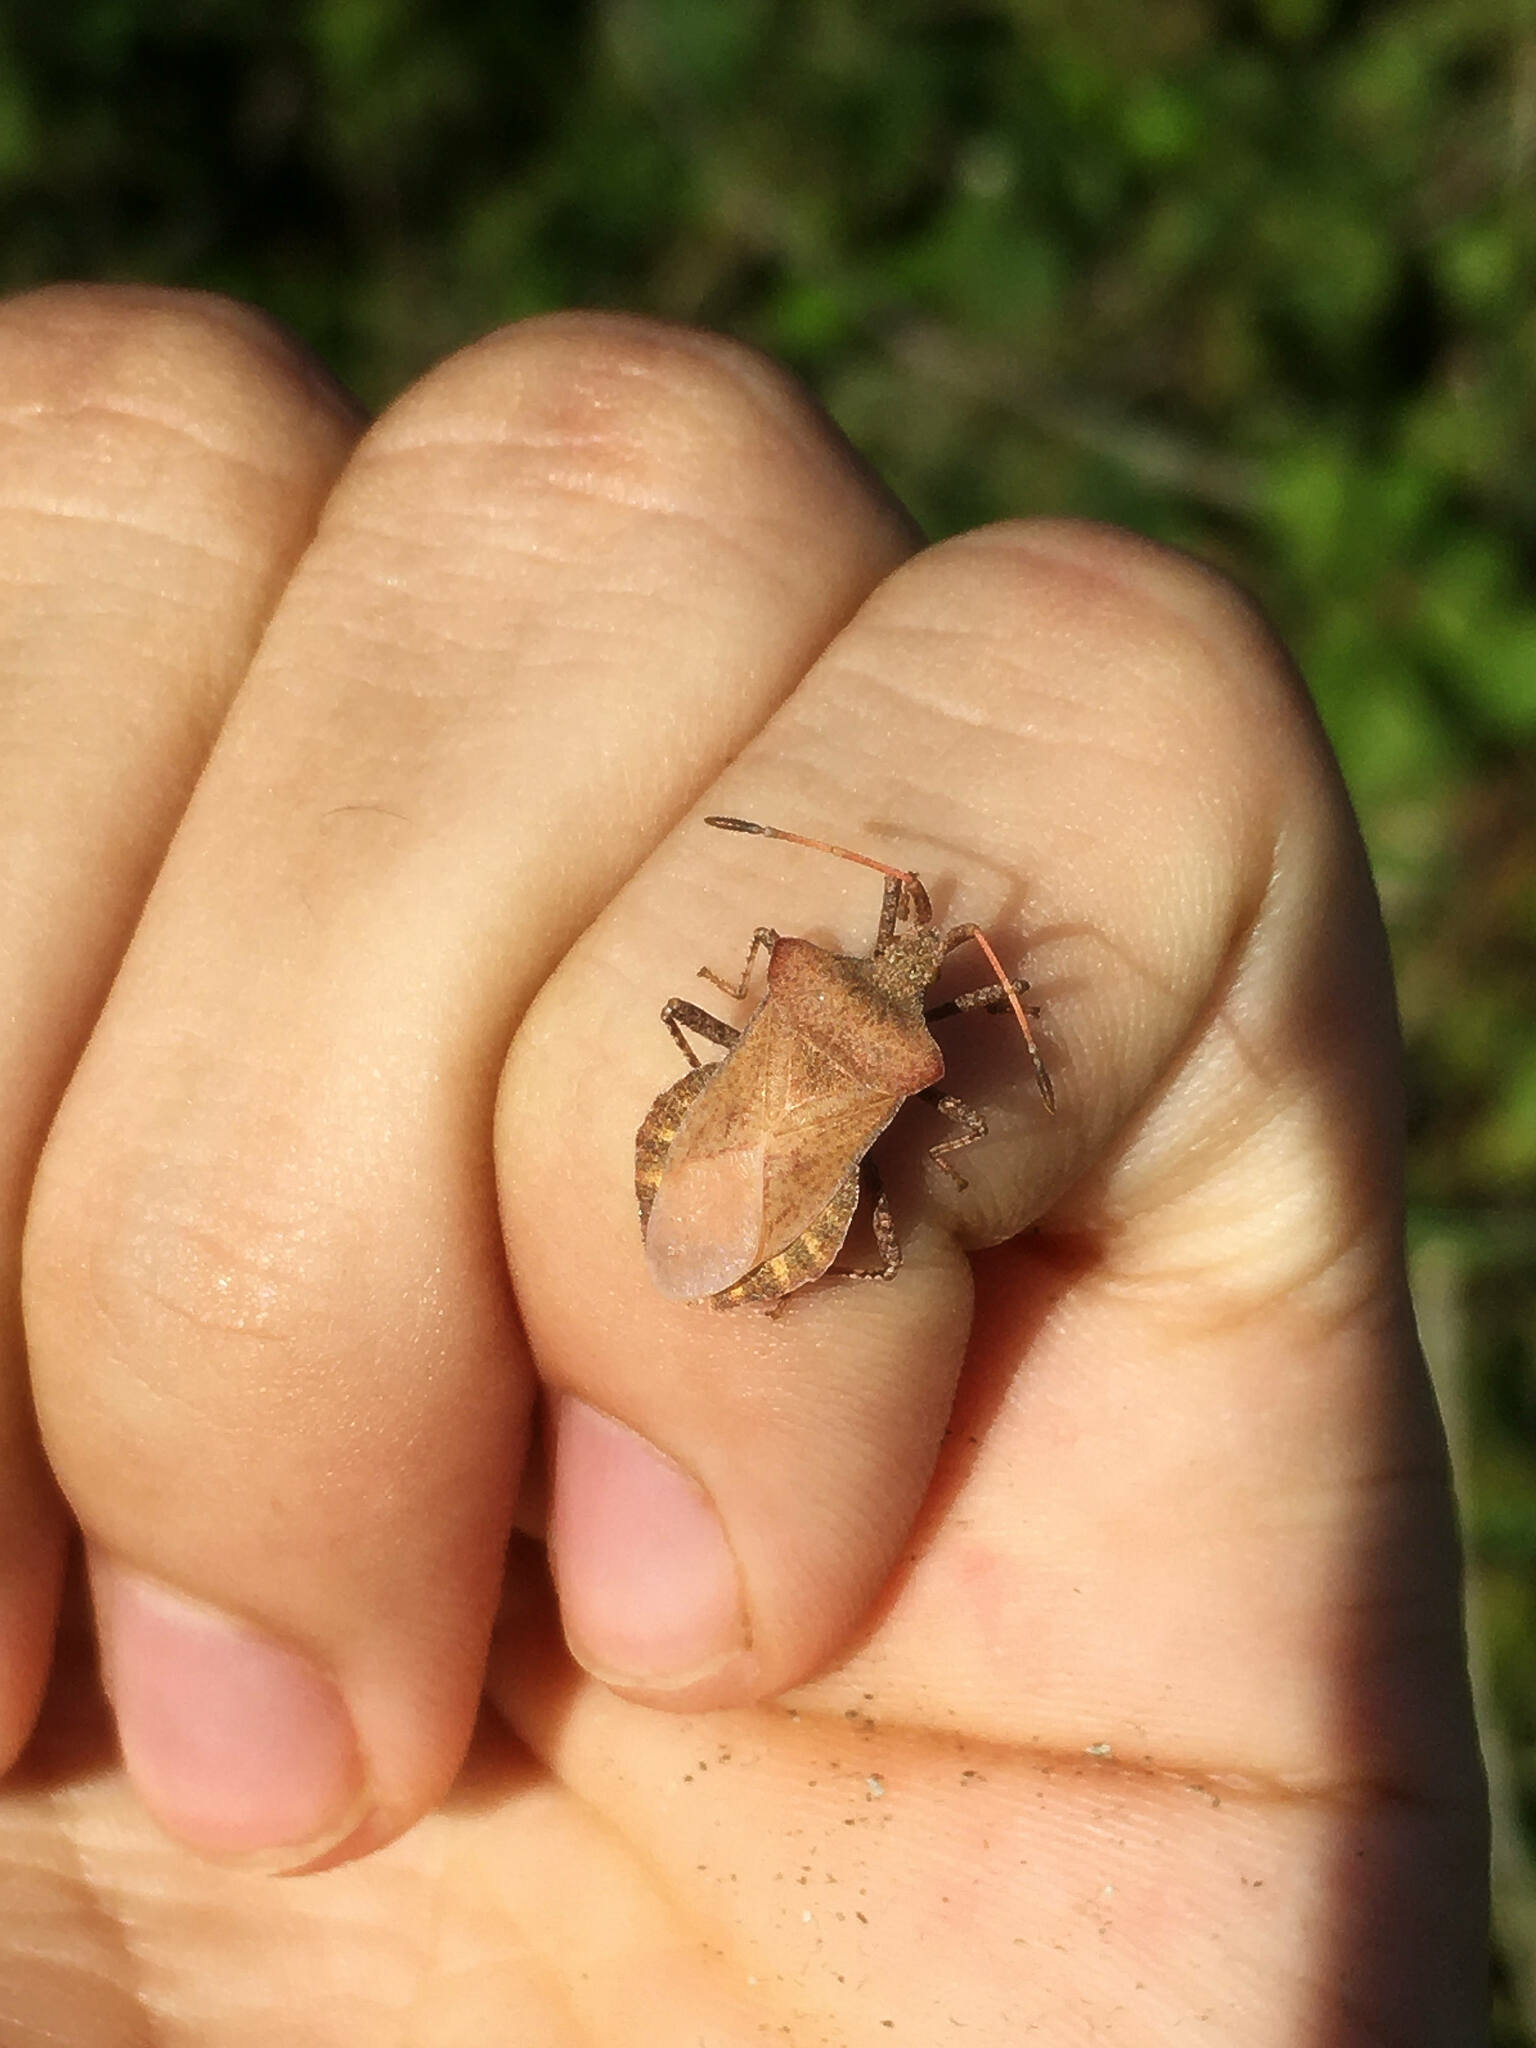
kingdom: Animalia
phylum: Arthropoda
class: Insecta
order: Hemiptera
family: Coreidae
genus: Coreus
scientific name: Coreus marginatus
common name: Dock bug
